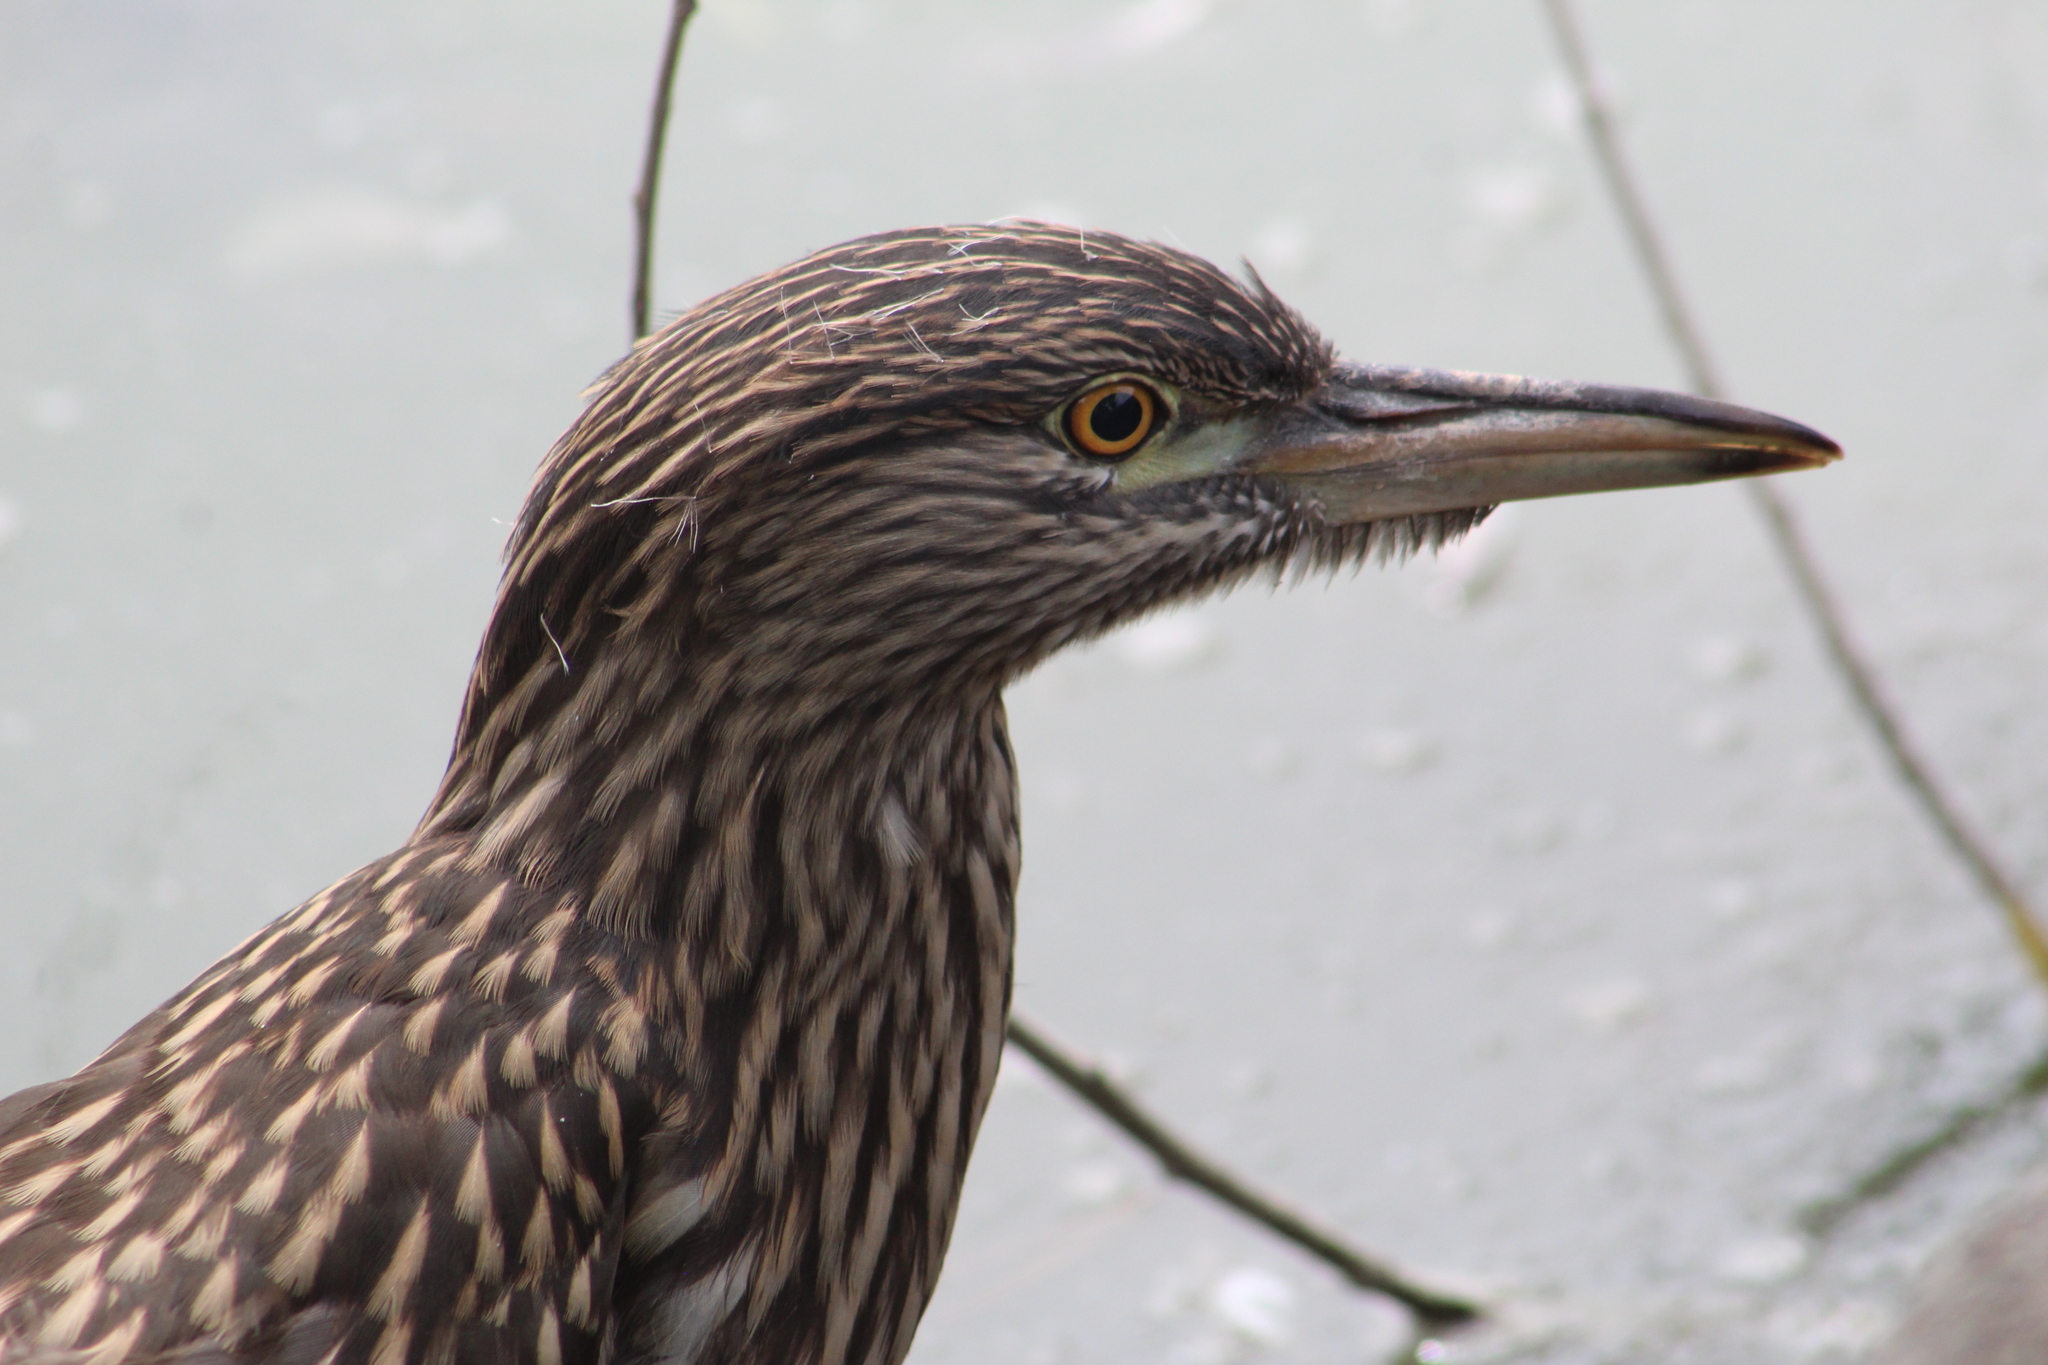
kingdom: Animalia
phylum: Chordata
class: Aves
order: Pelecaniformes
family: Ardeidae
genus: Nycticorax
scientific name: Nycticorax nycticorax
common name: Black-crowned night heron
